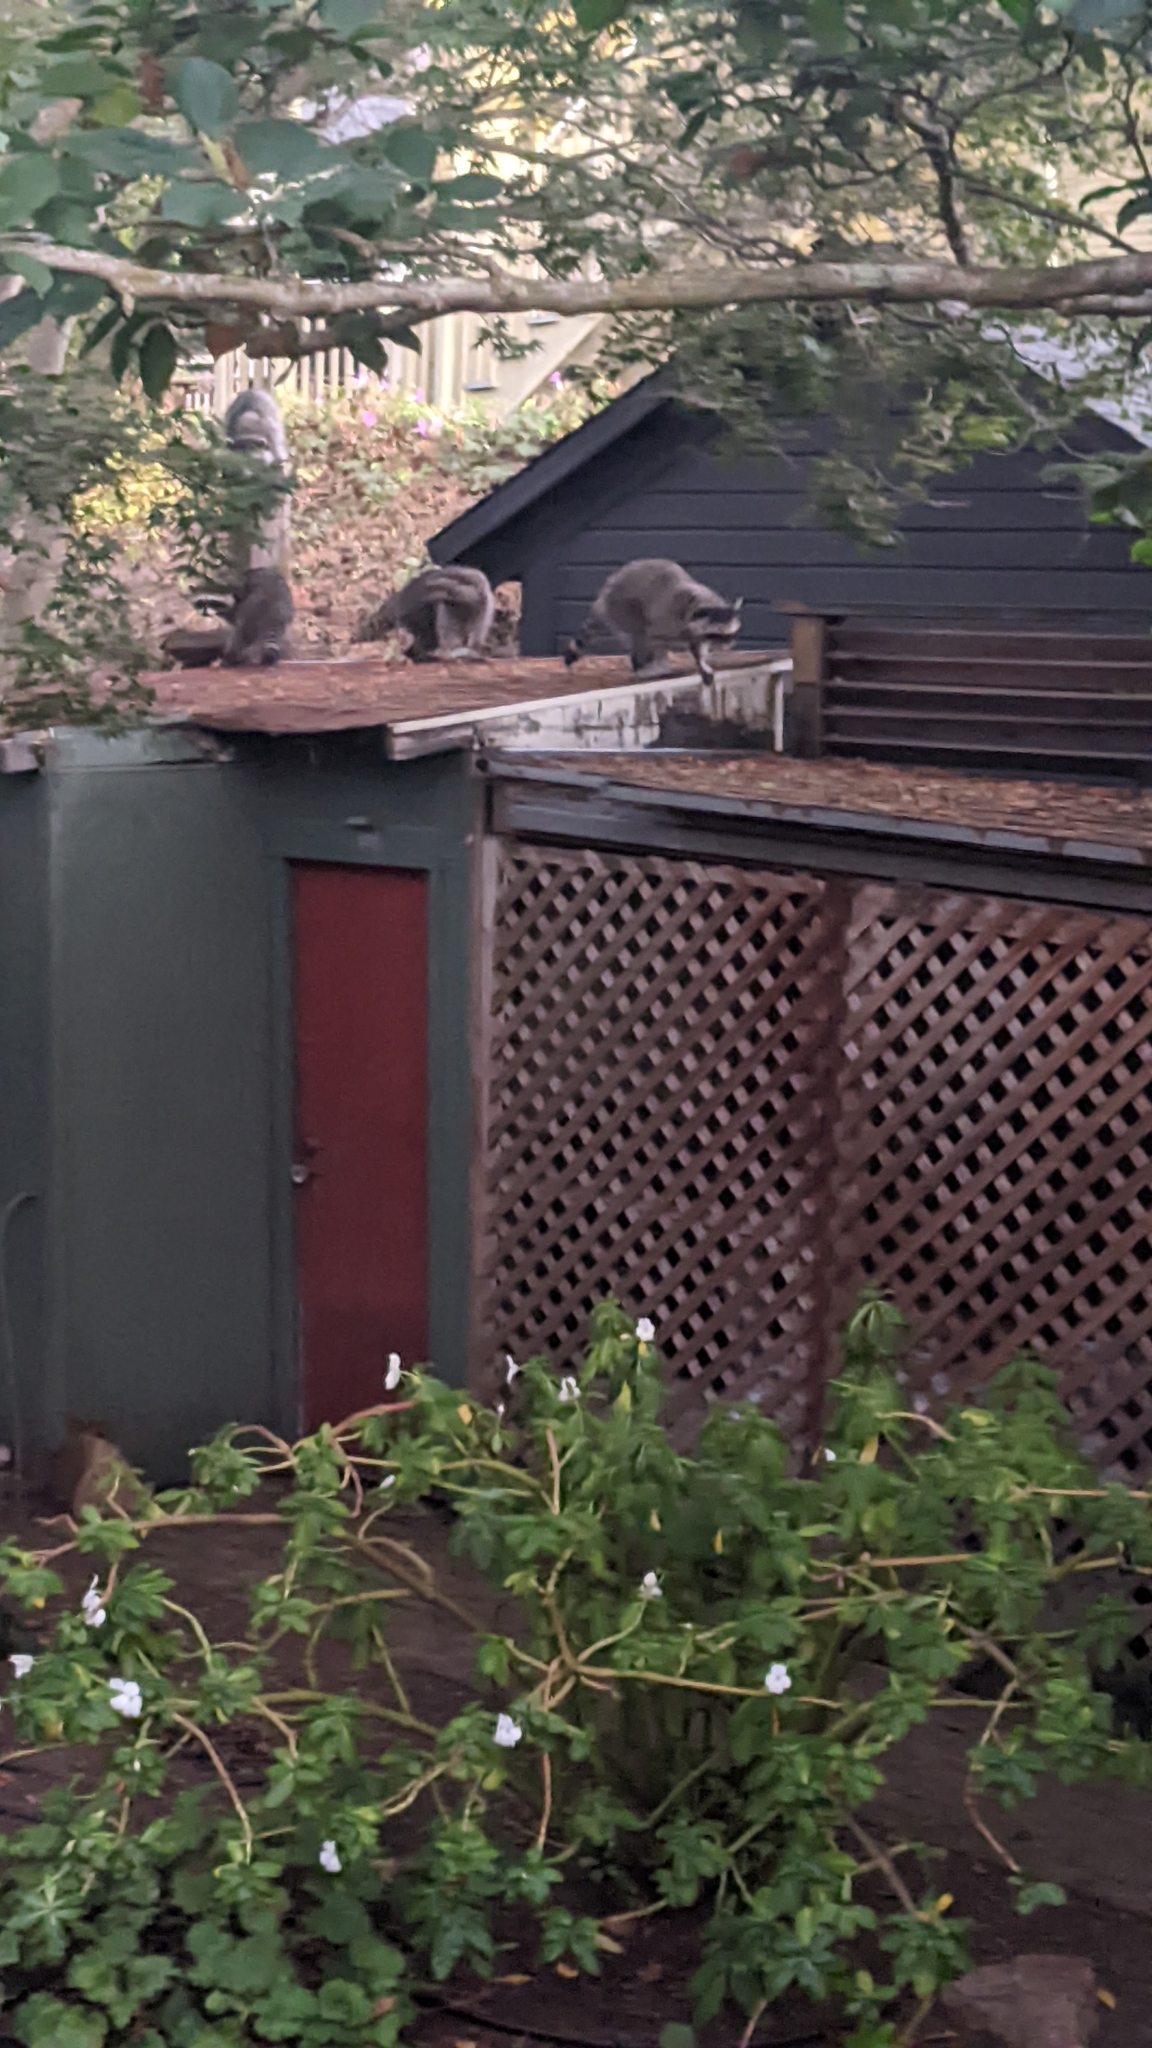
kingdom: Animalia
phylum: Chordata
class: Mammalia
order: Carnivora
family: Procyonidae
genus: Procyon
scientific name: Procyon lotor
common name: Raccoon
